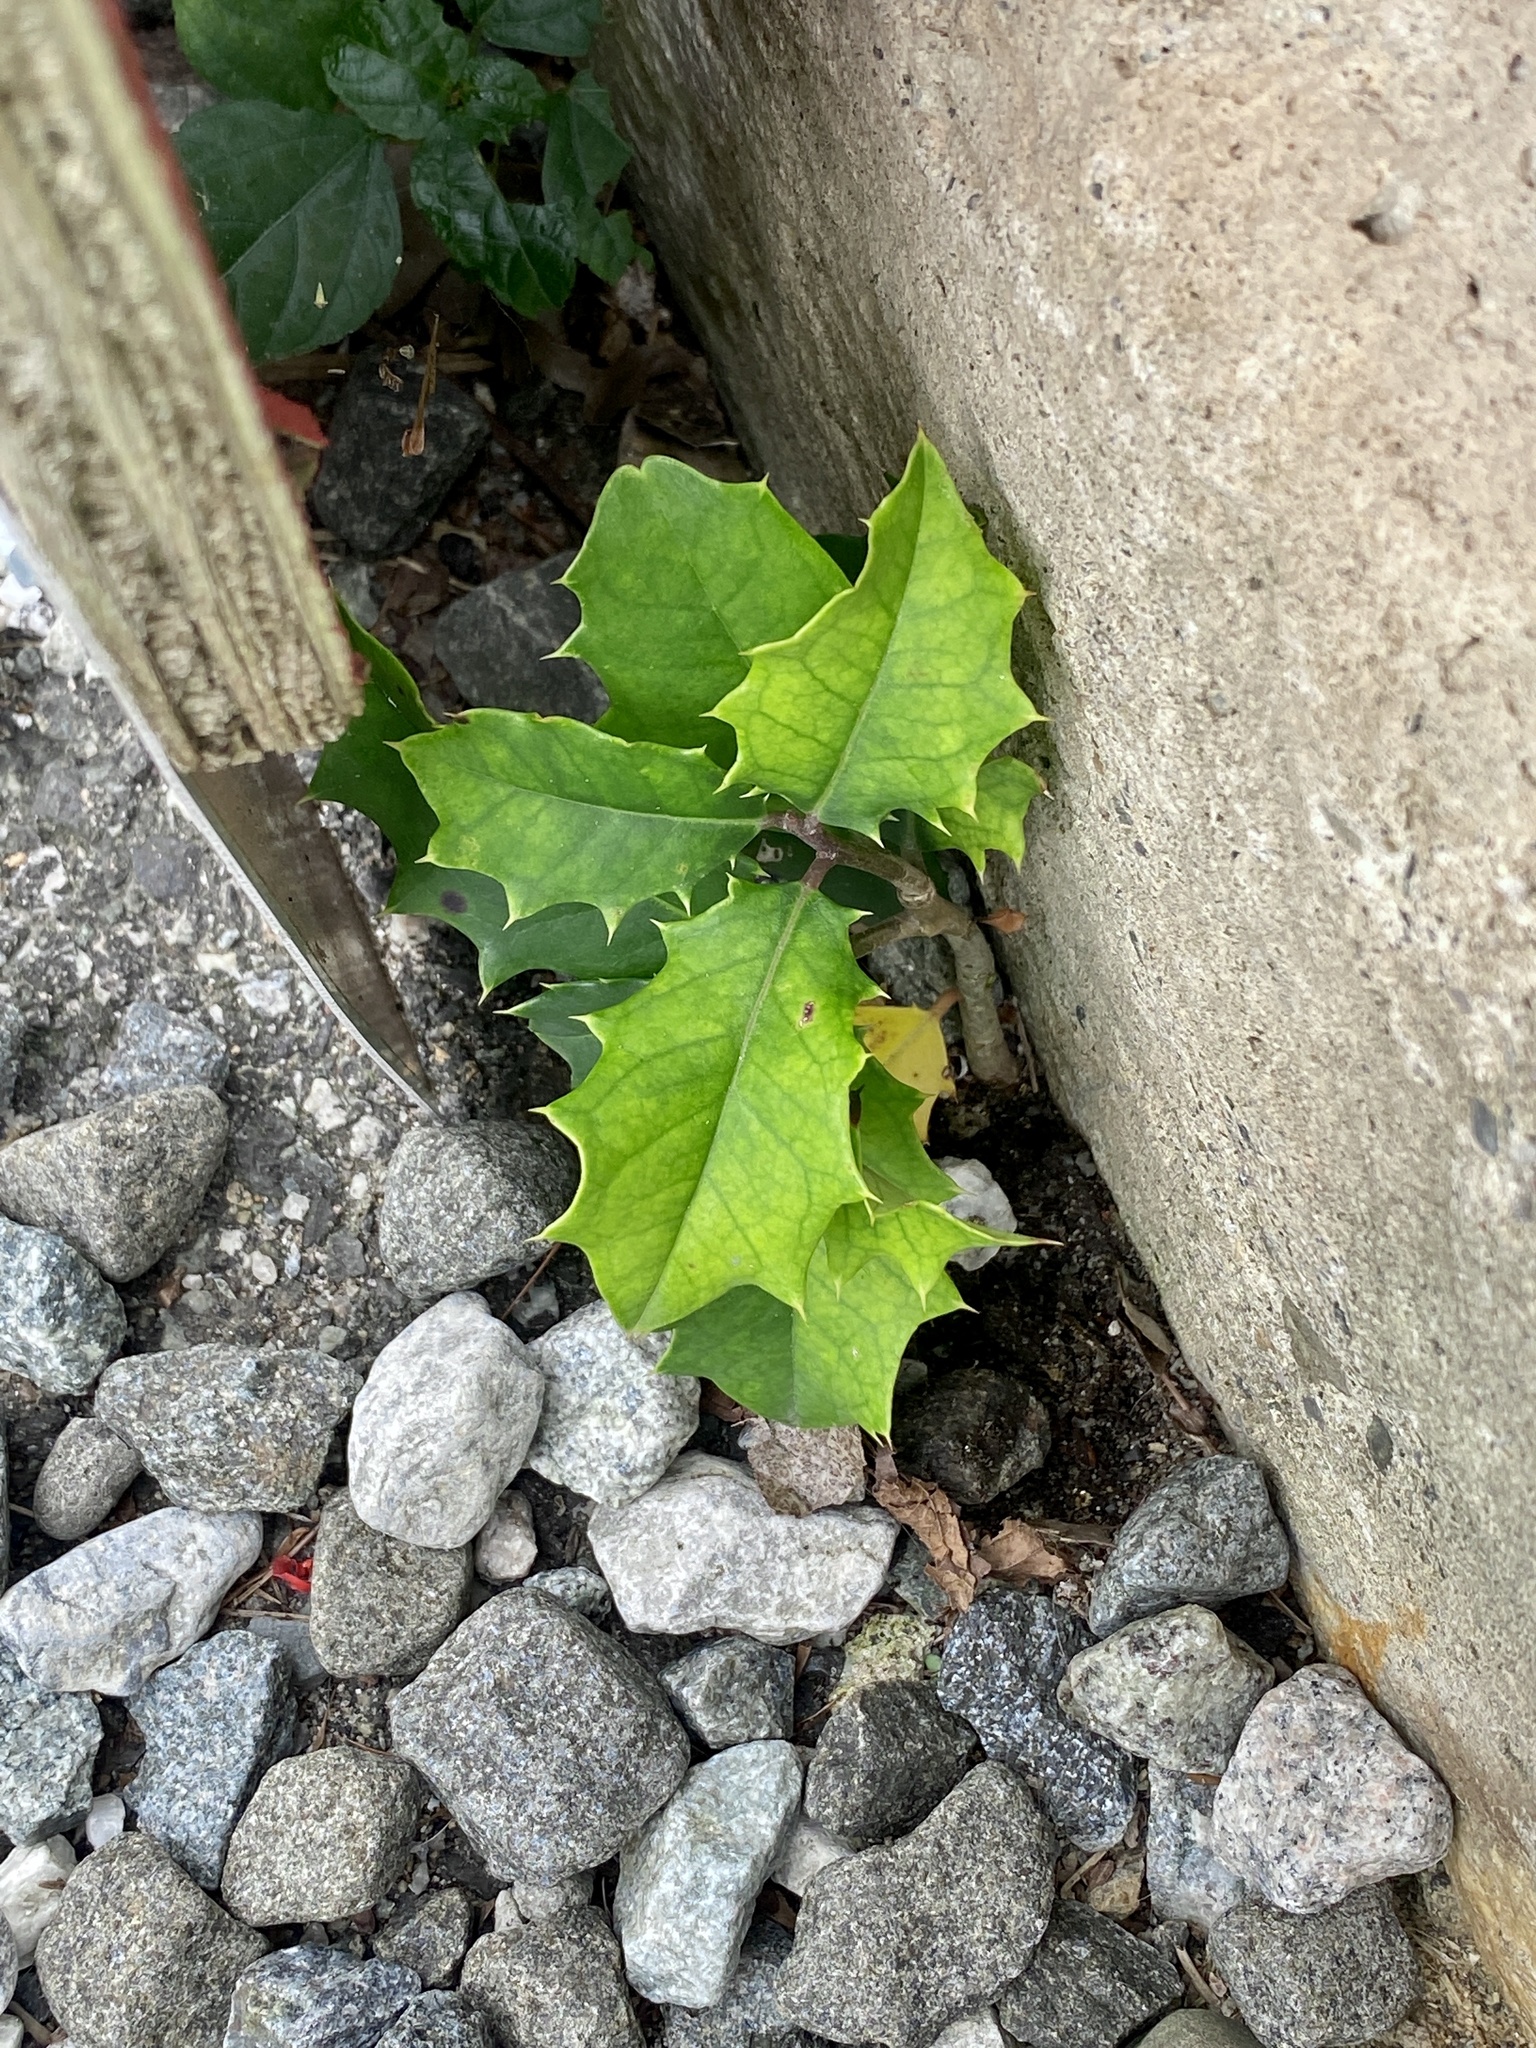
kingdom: Plantae
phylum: Tracheophyta
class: Magnoliopsida
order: Aquifoliales
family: Aquifoliaceae
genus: Ilex
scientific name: Ilex opaca
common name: American holly
